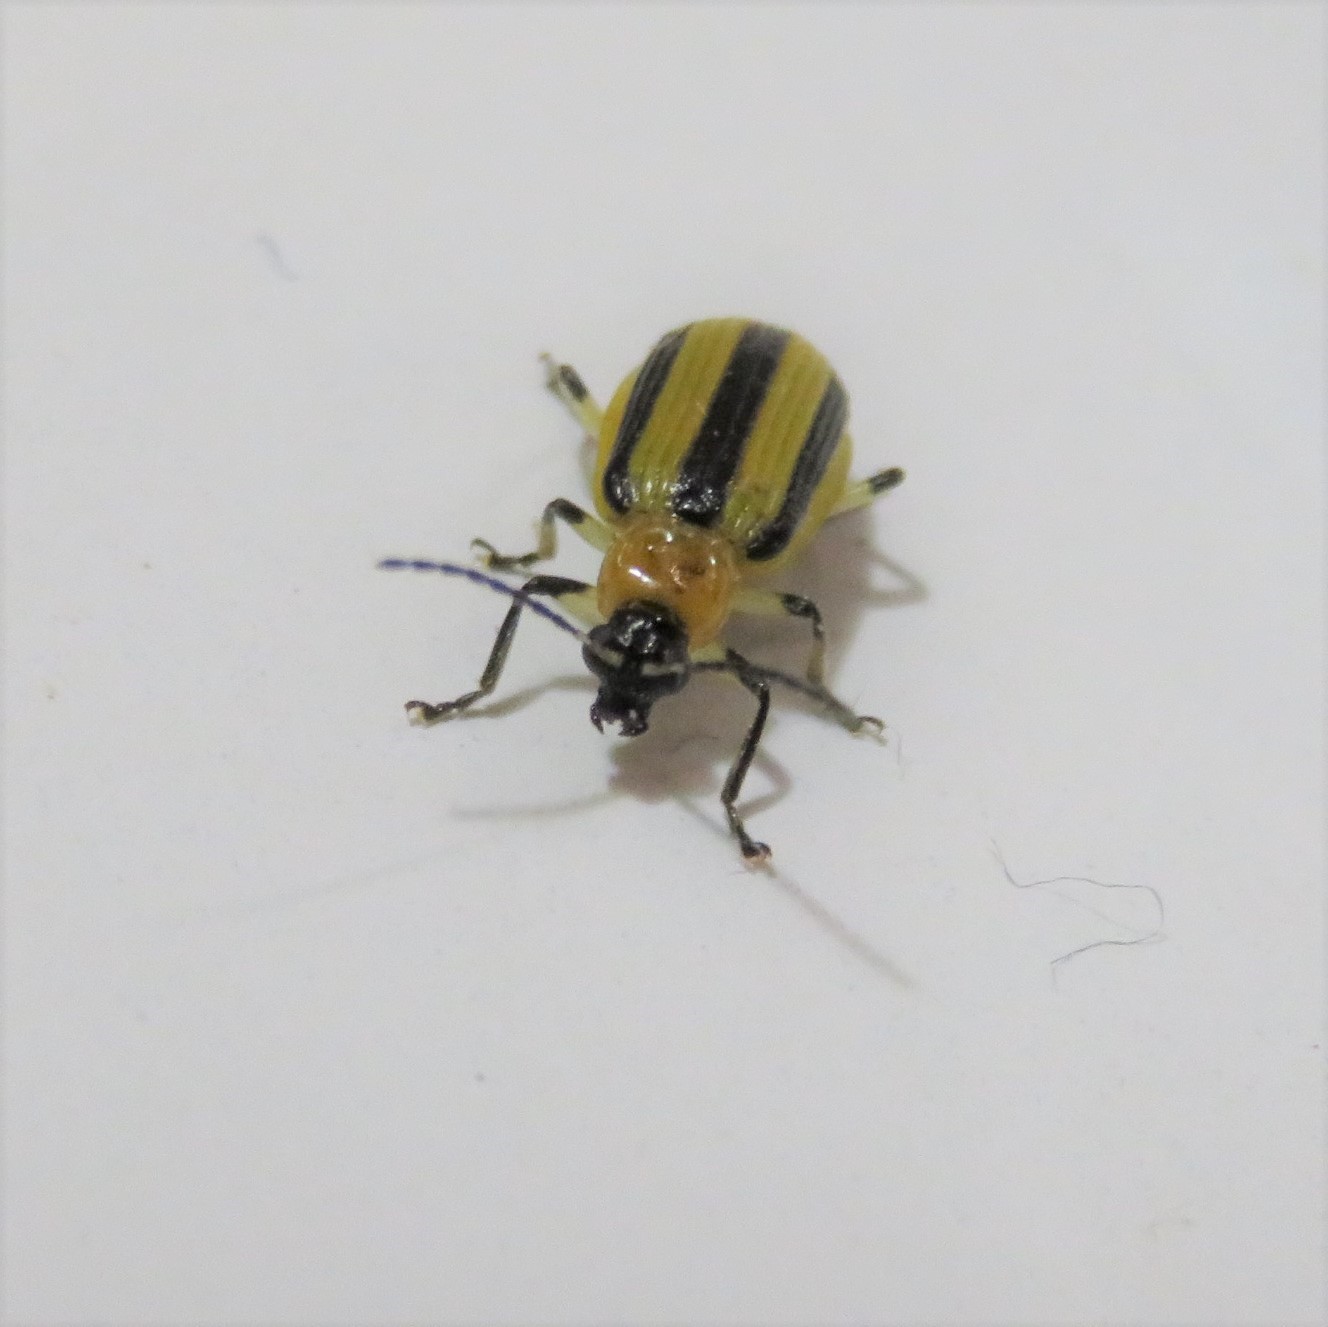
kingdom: Animalia
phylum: Arthropoda
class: Insecta
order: Coleoptera
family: Chrysomelidae
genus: Acalymma
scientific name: Acalymma vittatum
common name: Striped cucumber beetle
